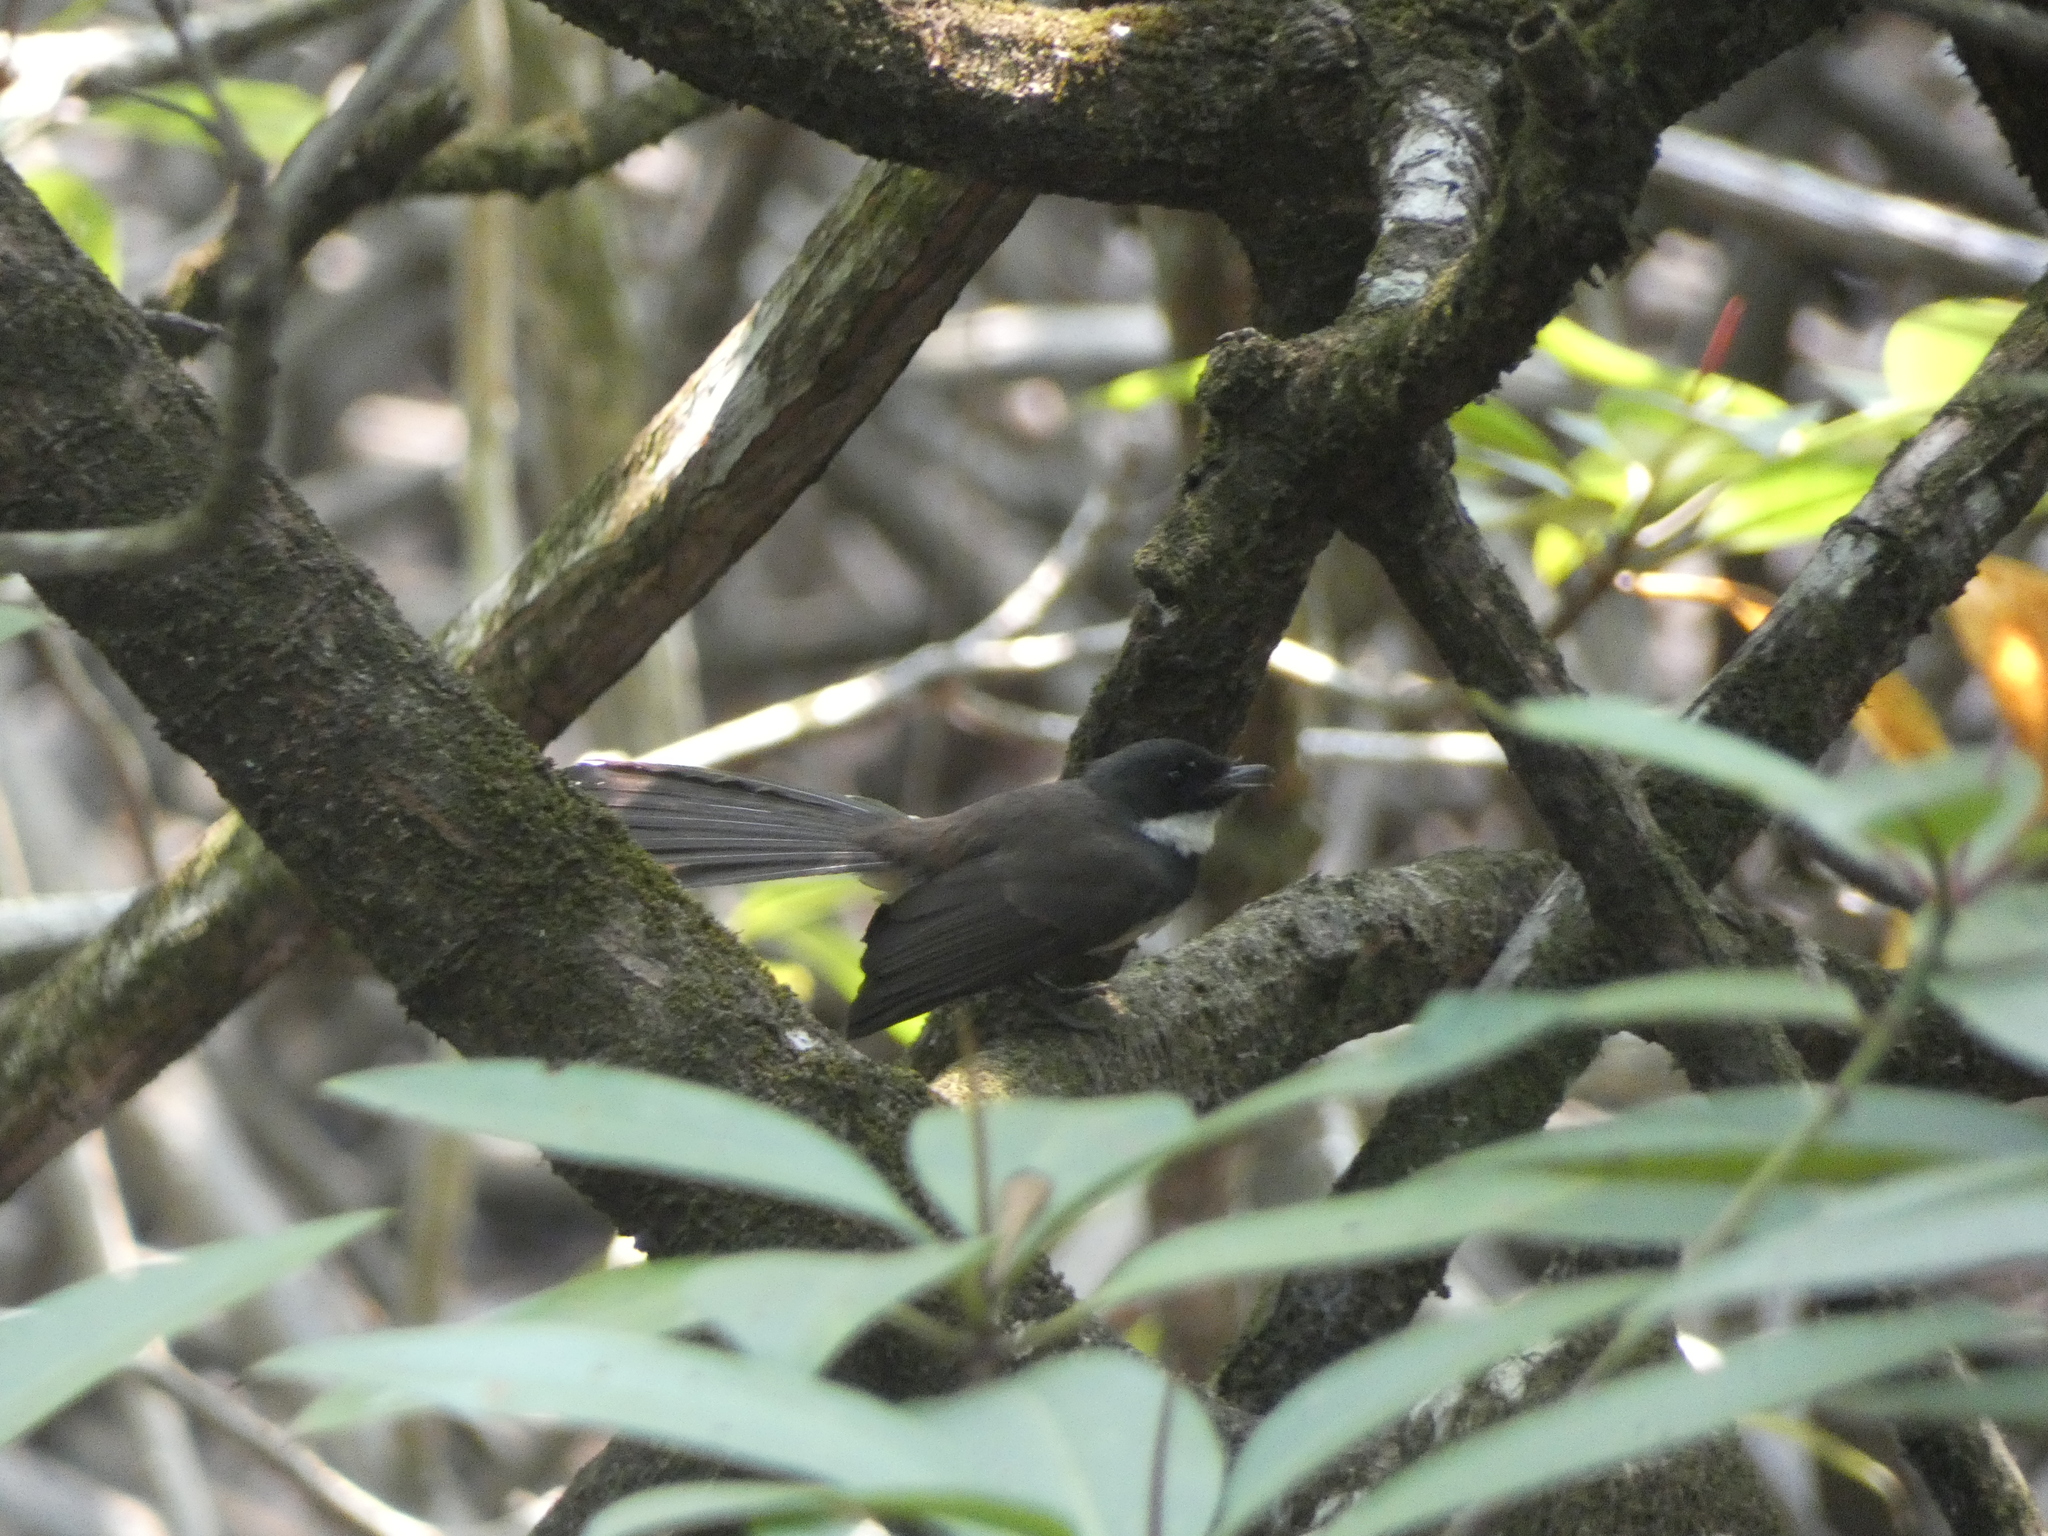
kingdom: Animalia
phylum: Chordata
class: Aves
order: Passeriformes
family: Rhipiduridae
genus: Rhipidura
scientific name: Rhipidura javanica
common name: Pied fantail
